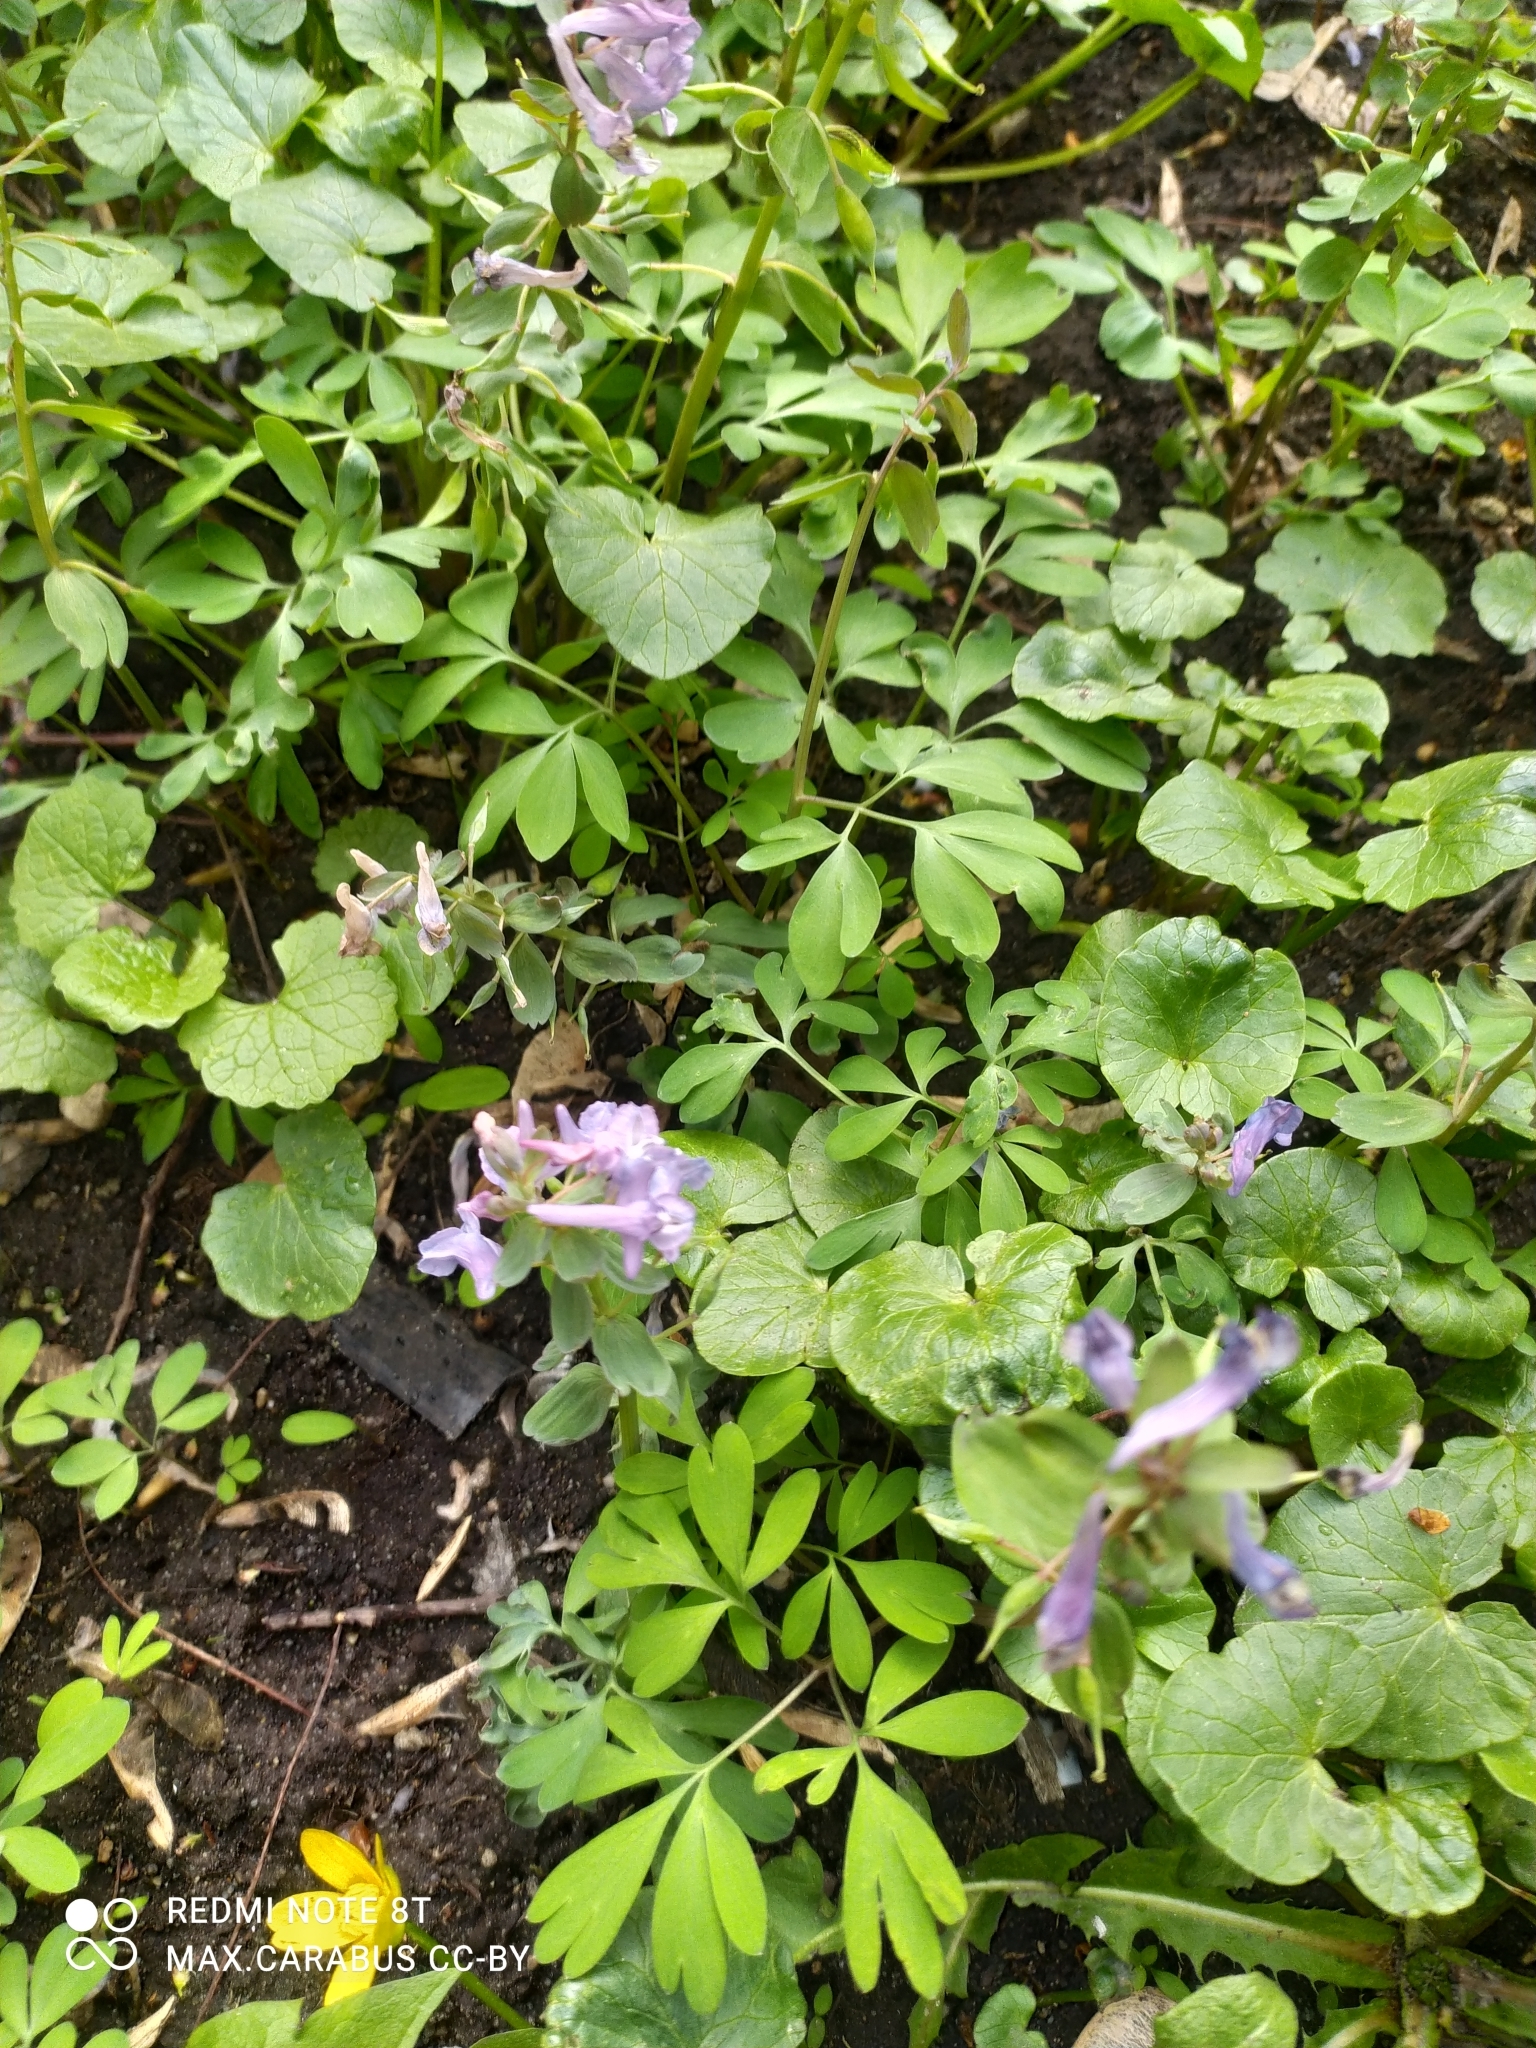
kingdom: Plantae
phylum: Tracheophyta
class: Magnoliopsida
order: Ranunculales
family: Papaveraceae
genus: Corydalis
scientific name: Corydalis solida
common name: Bird-in-a-bush
